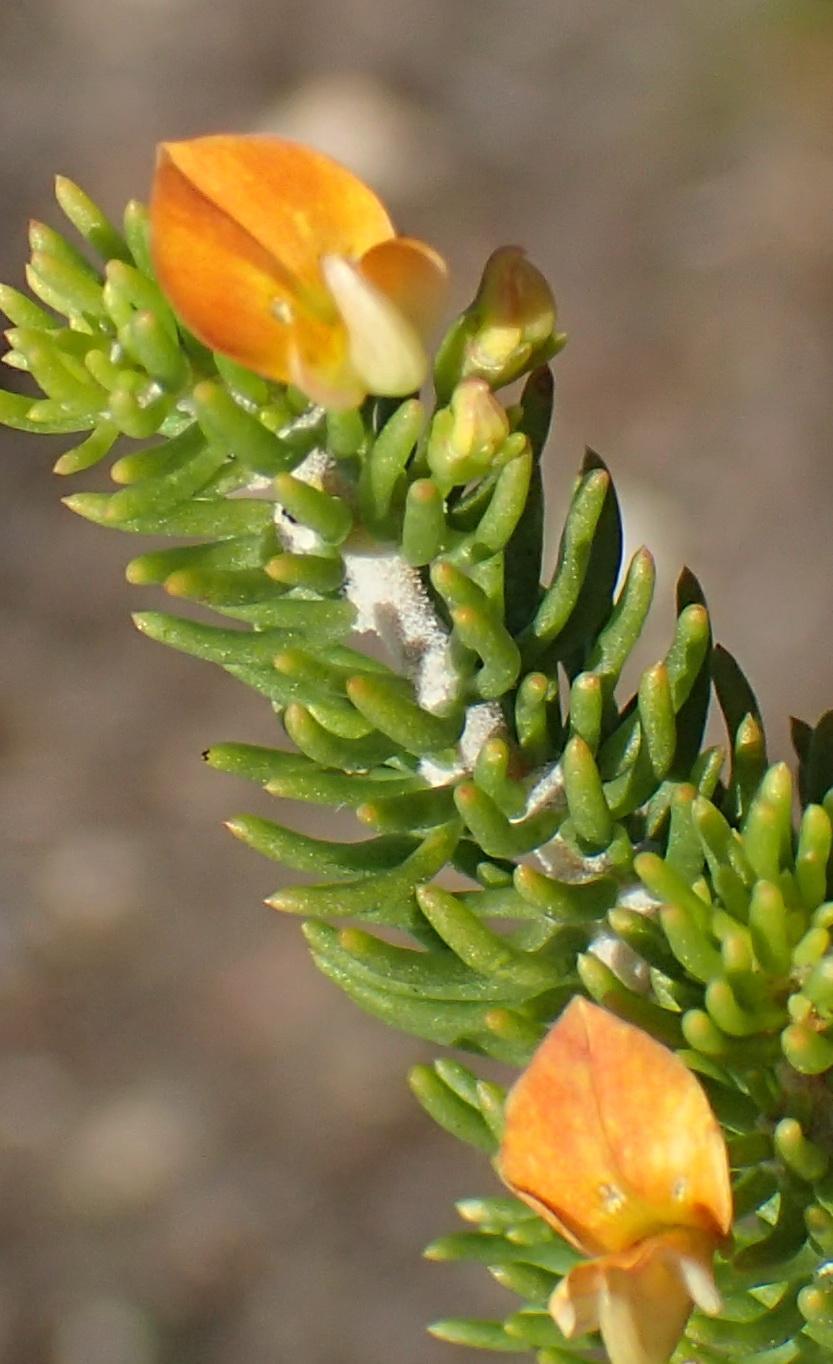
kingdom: Plantae
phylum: Tracheophyta
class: Magnoliopsida
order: Fabales
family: Fabaceae
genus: Aspalathus
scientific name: Aspalathus sanguinea
